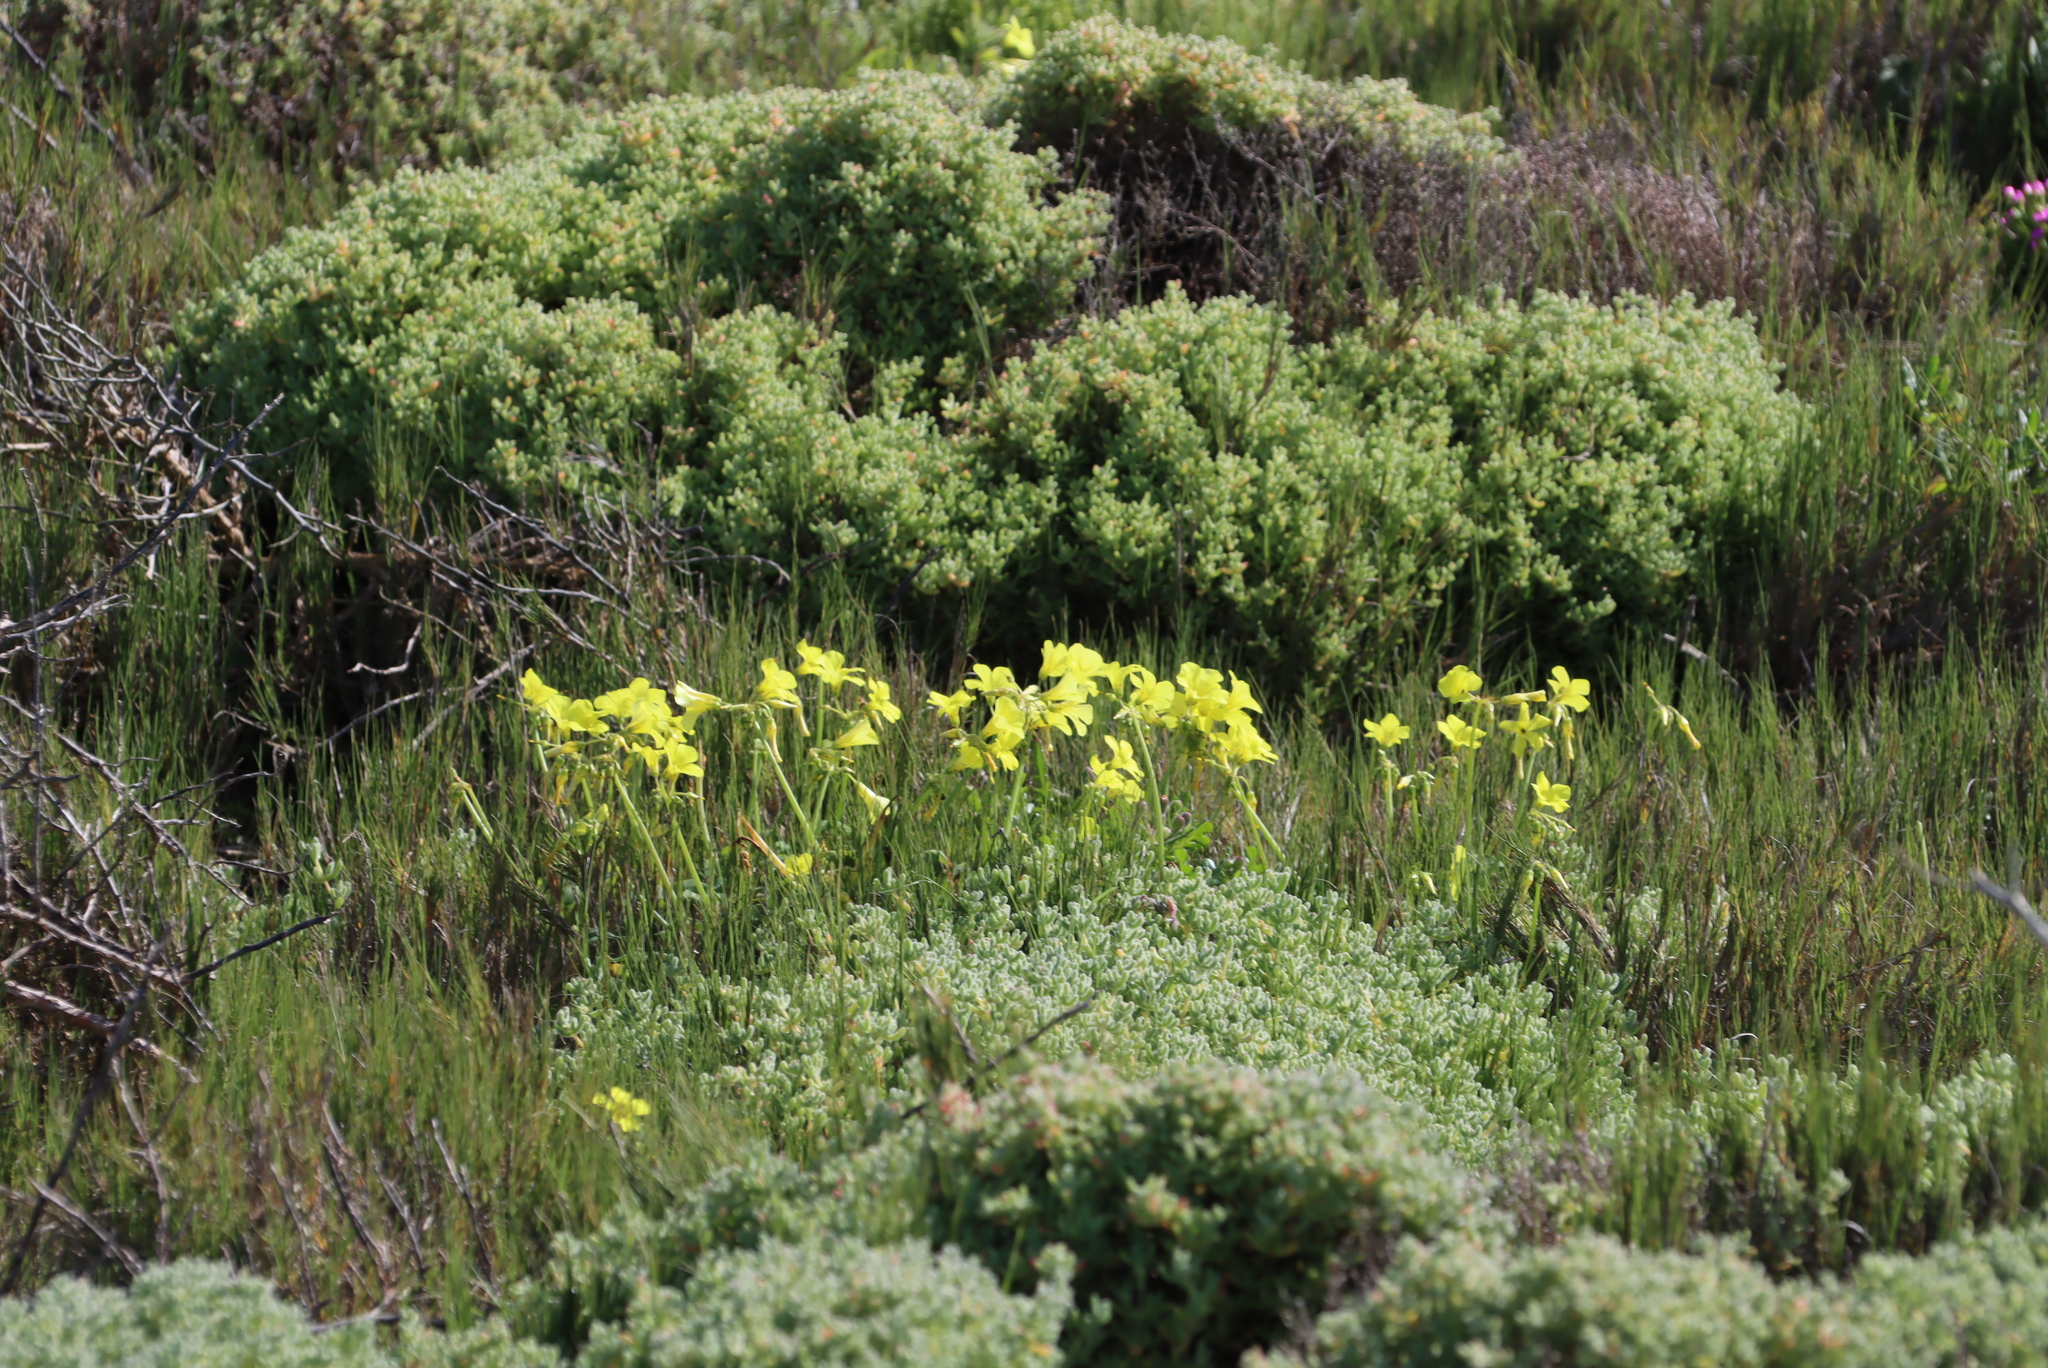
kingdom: Plantae
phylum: Tracheophyta
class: Magnoliopsida
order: Oxalidales
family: Oxalidaceae
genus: Oxalis
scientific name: Oxalis pes-caprae
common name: Bermuda-buttercup
